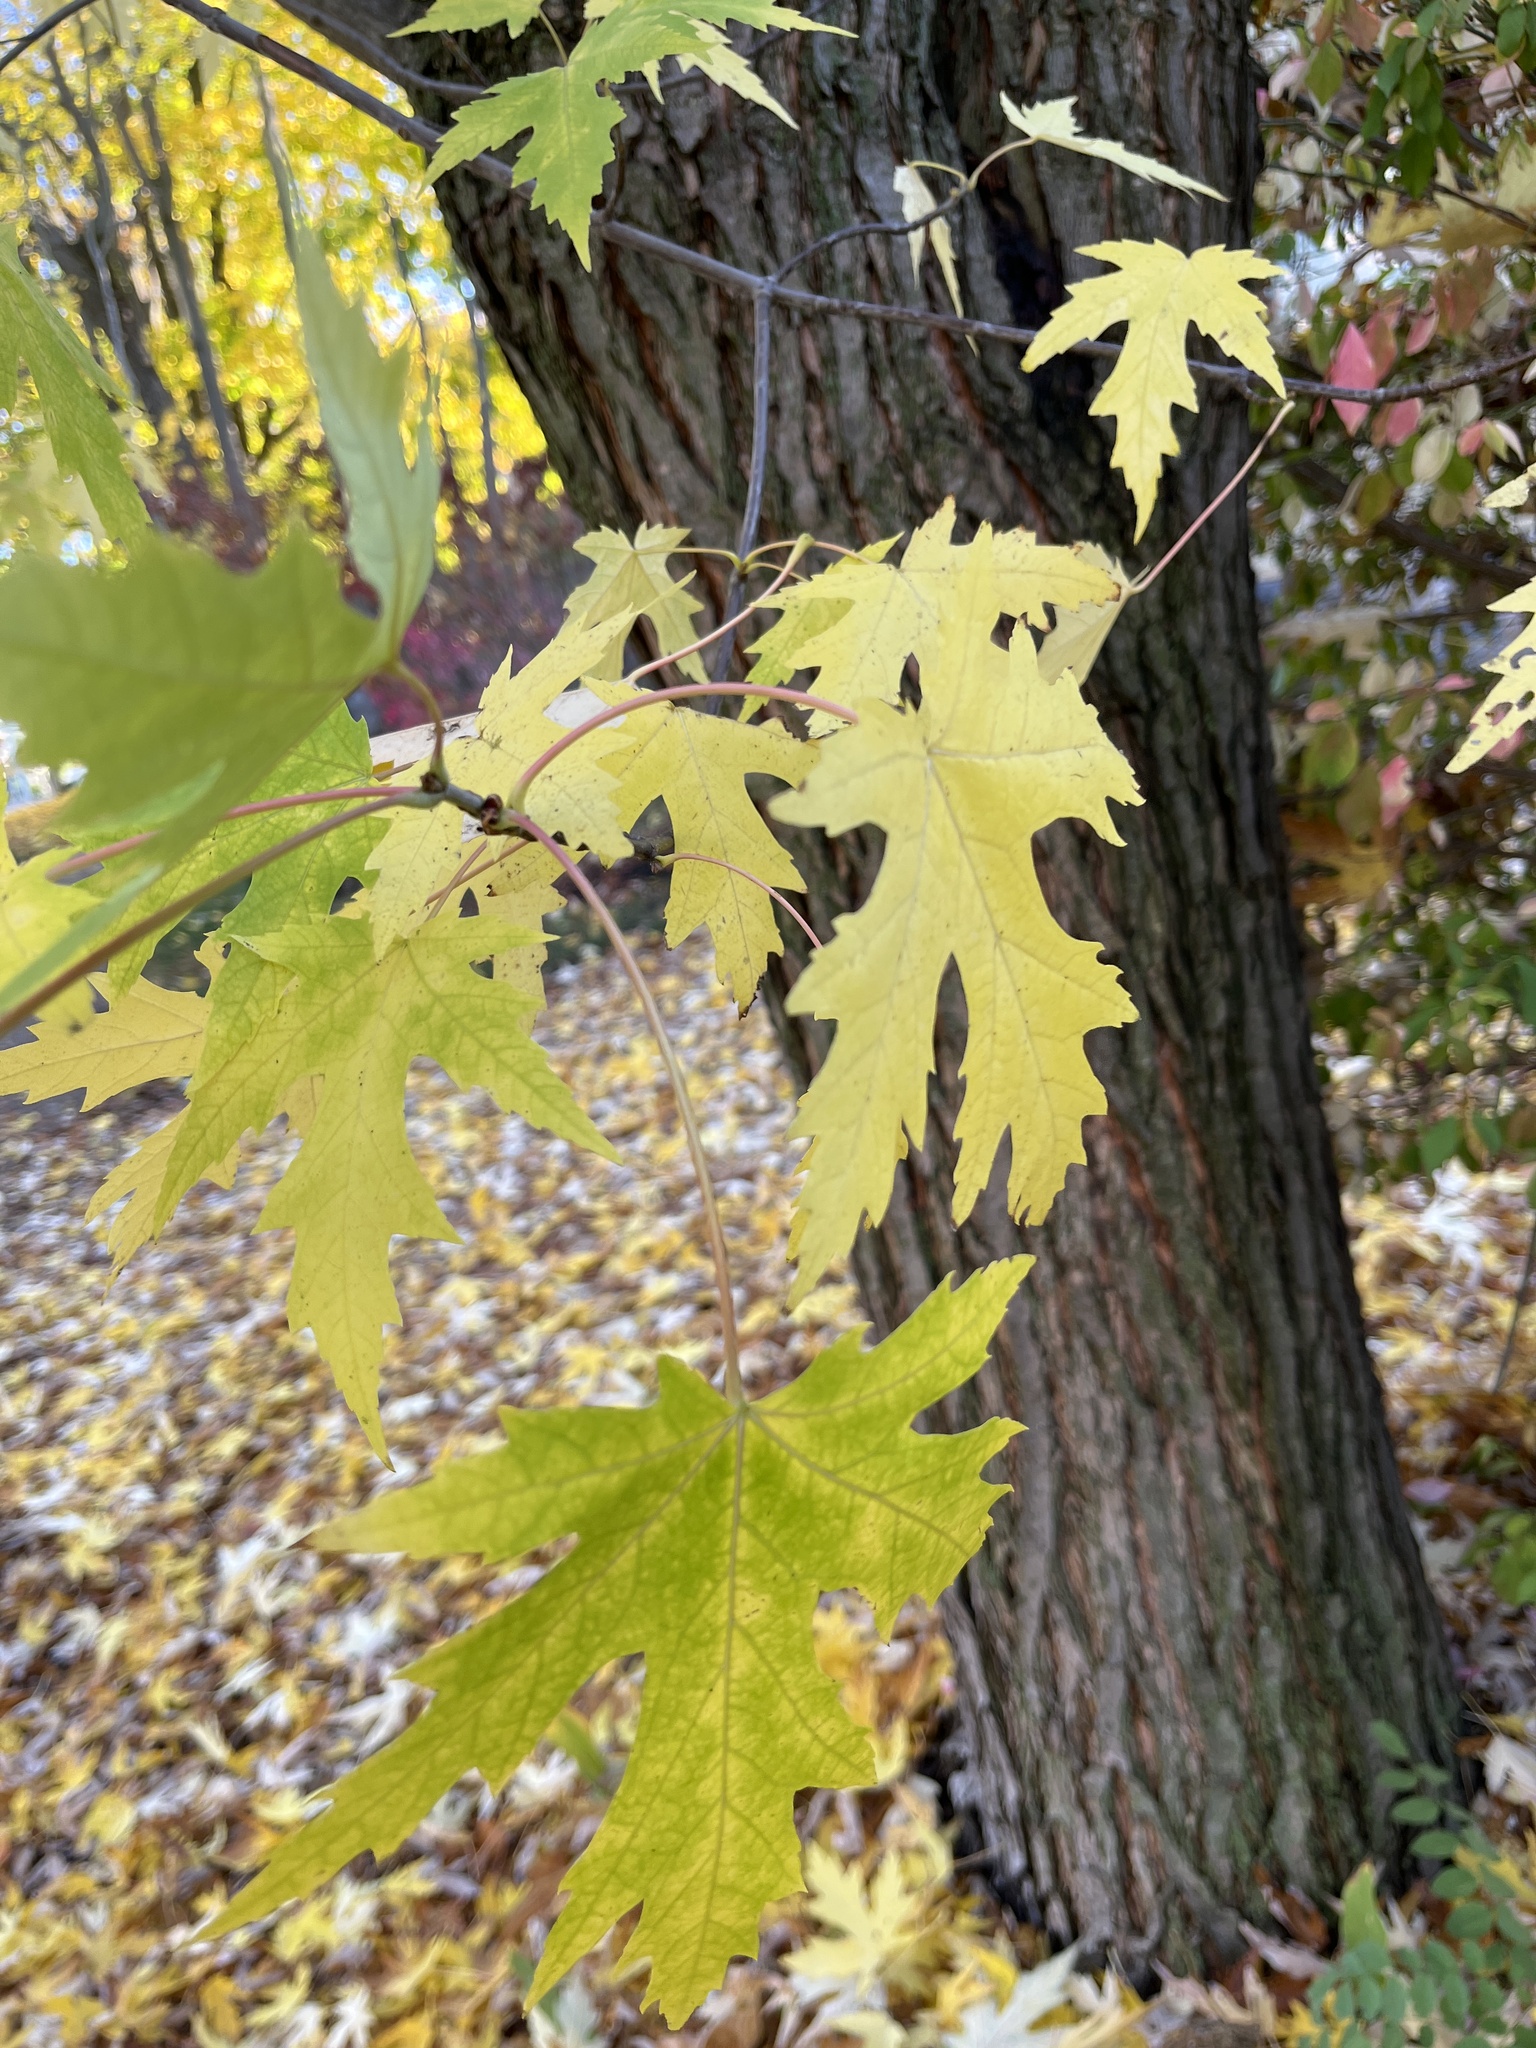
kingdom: Plantae
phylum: Tracheophyta
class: Magnoliopsida
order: Sapindales
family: Sapindaceae
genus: Acer
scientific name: Acer saccharinum
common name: Silver maple
